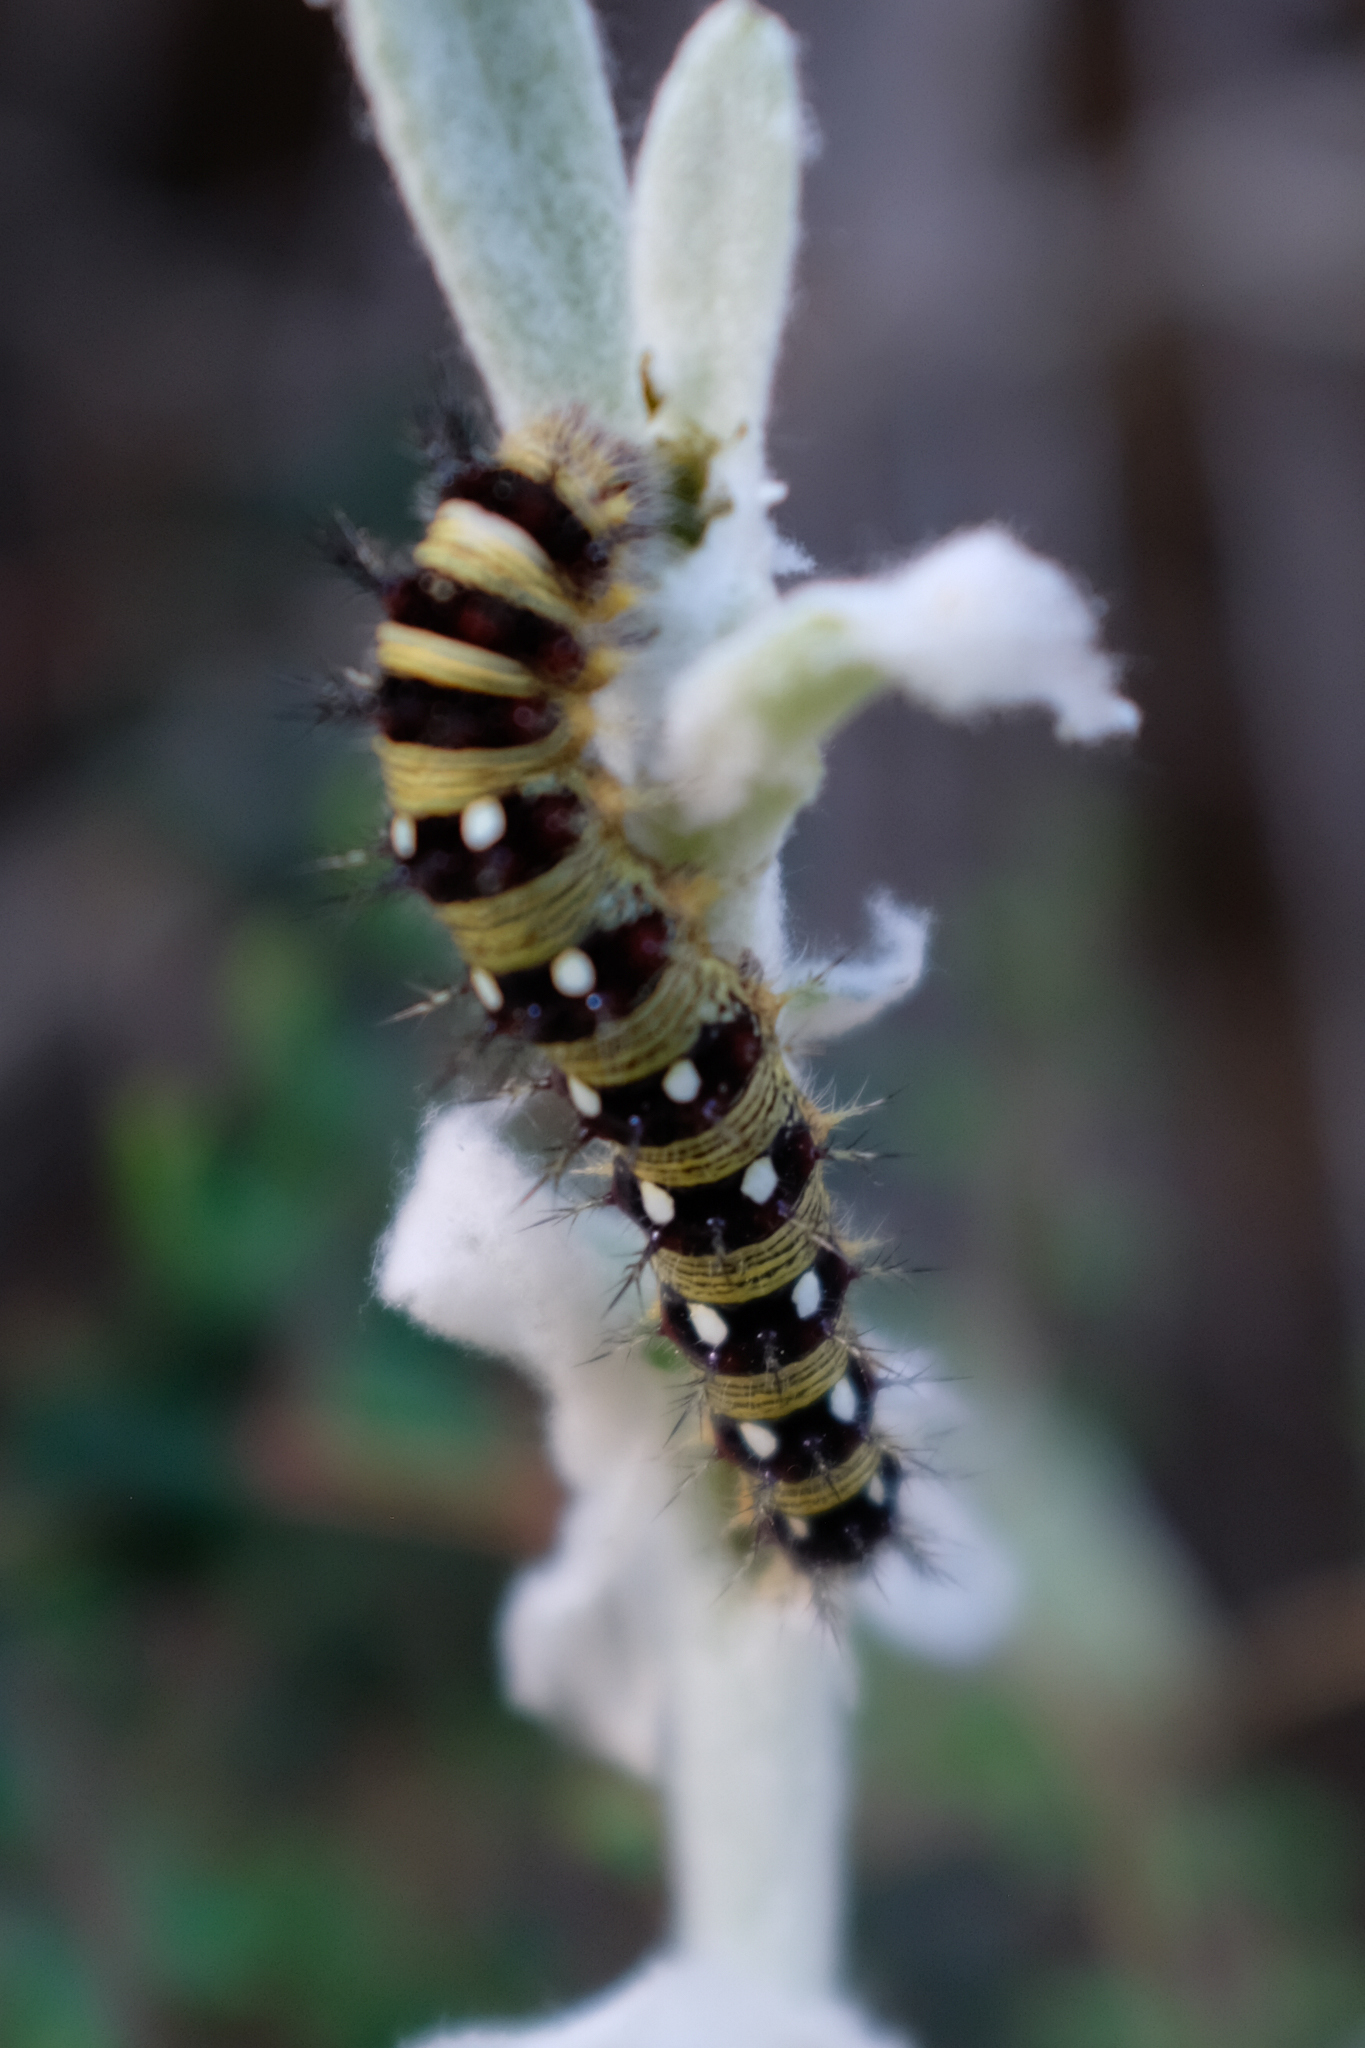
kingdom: Animalia
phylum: Arthropoda
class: Insecta
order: Lepidoptera
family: Nymphalidae
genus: Vanessa
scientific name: Vanessa virginiensis
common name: American lady
